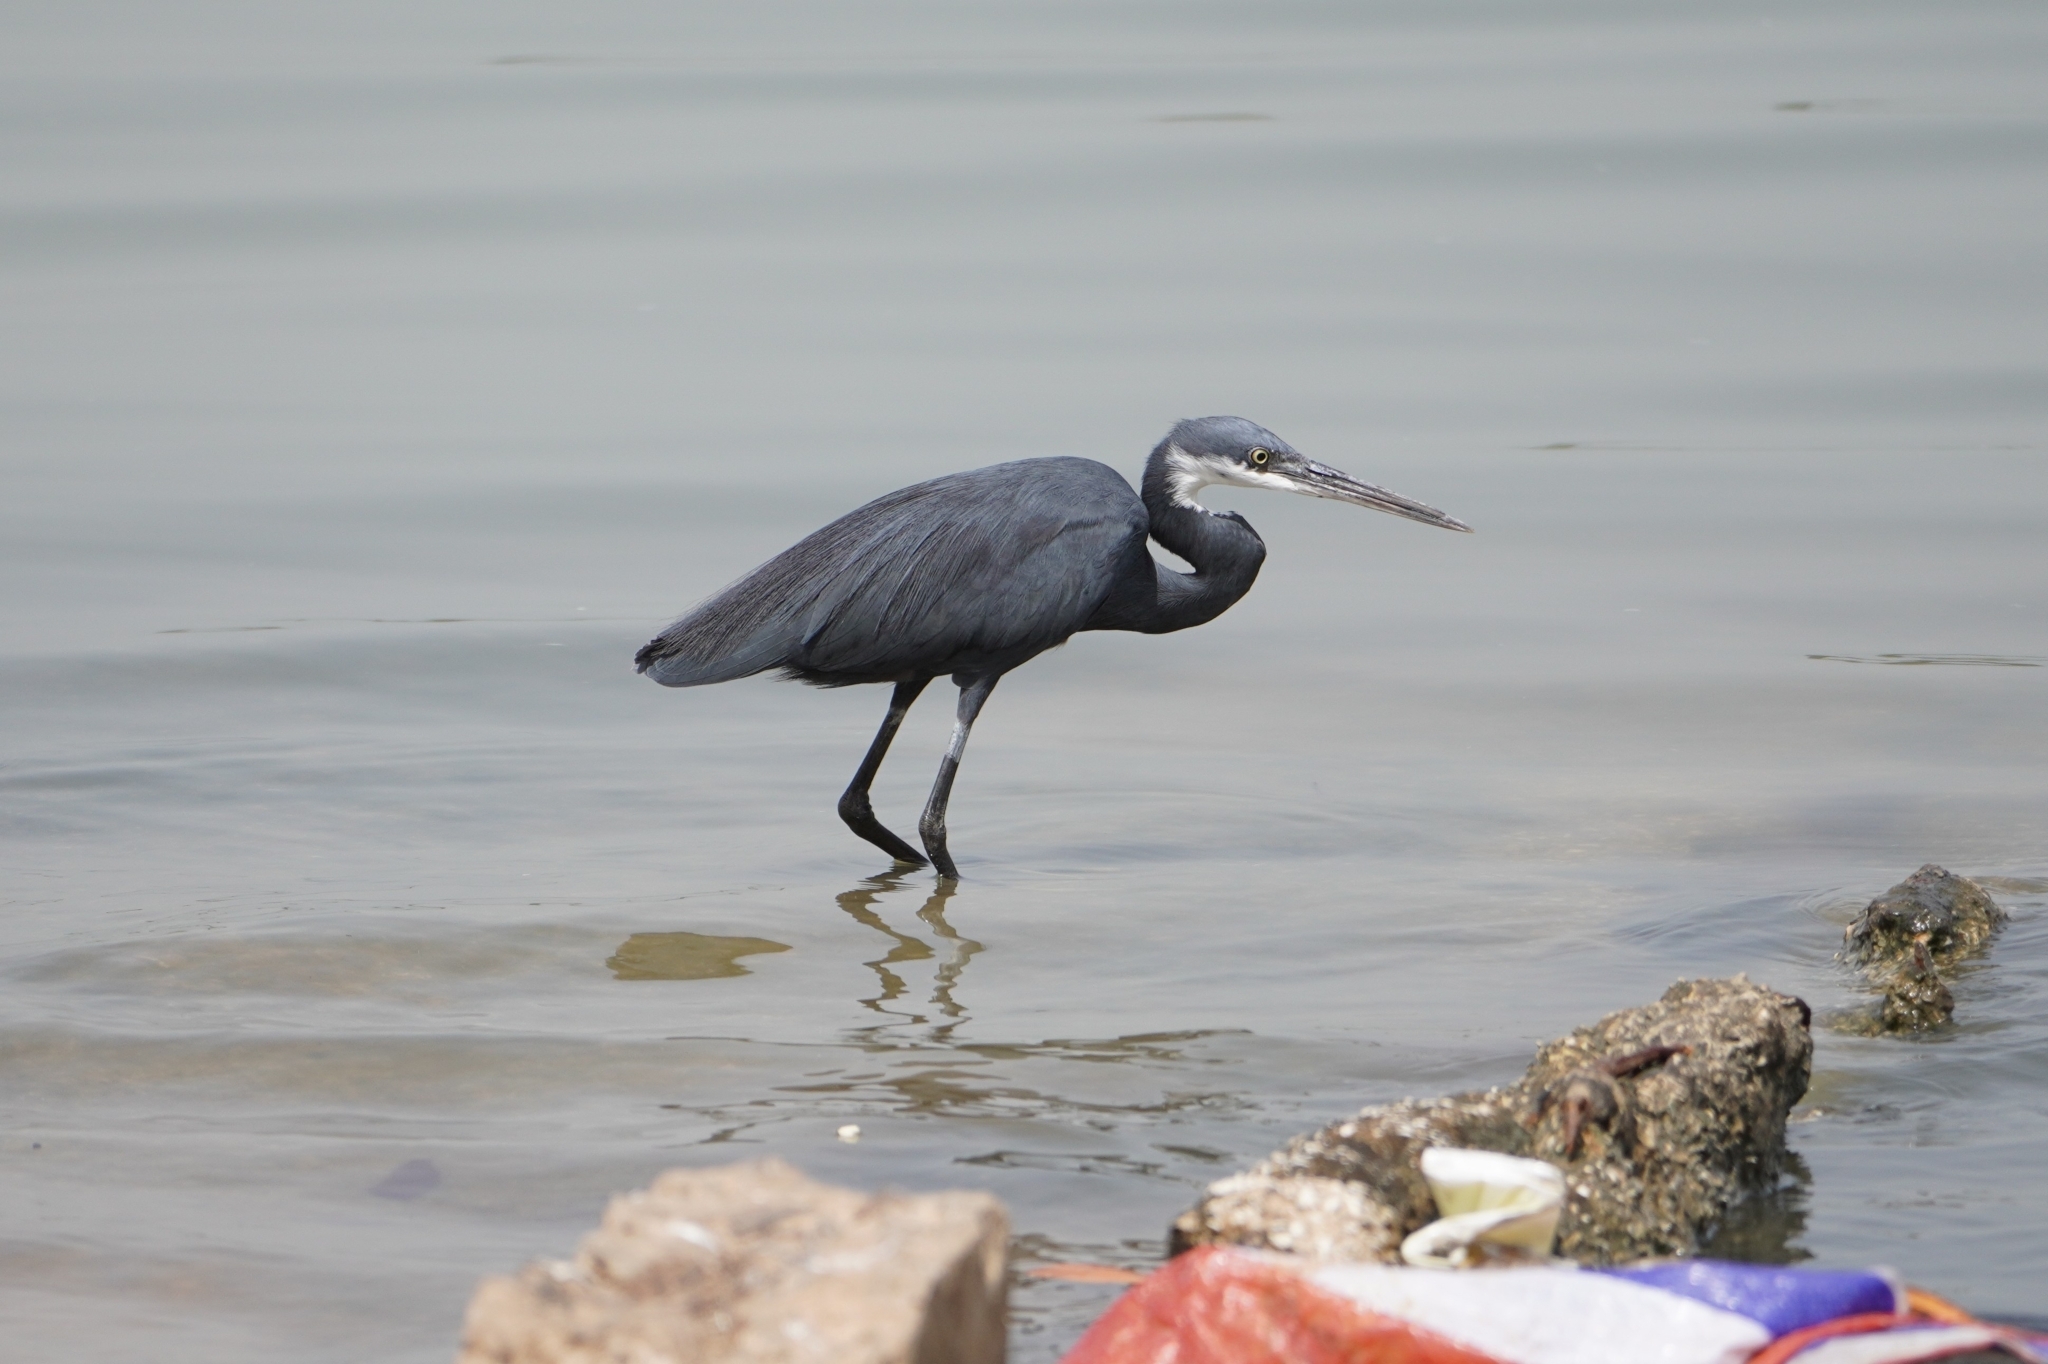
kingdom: Animalia
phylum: Chordata
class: Aves
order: Pelecaniformes
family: Ardeidae
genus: Egretta
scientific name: Egretta gularis
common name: Western reef-heron
